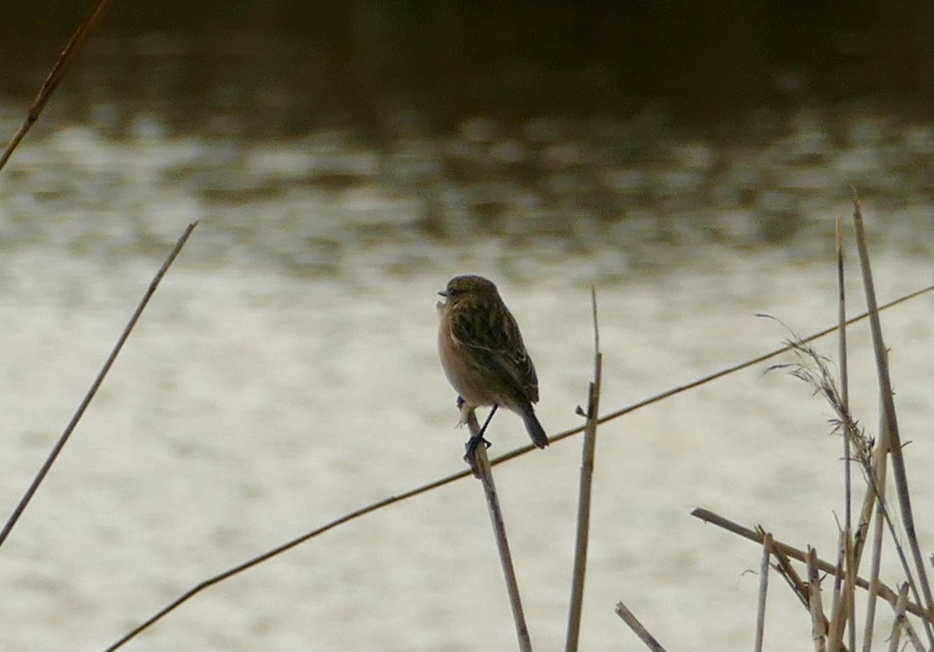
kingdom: Animalia
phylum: Chordata
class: Aves
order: Passeriformes
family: Muscicapidae
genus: Saxicola
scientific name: Saxicola rubicola
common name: European stonechat
